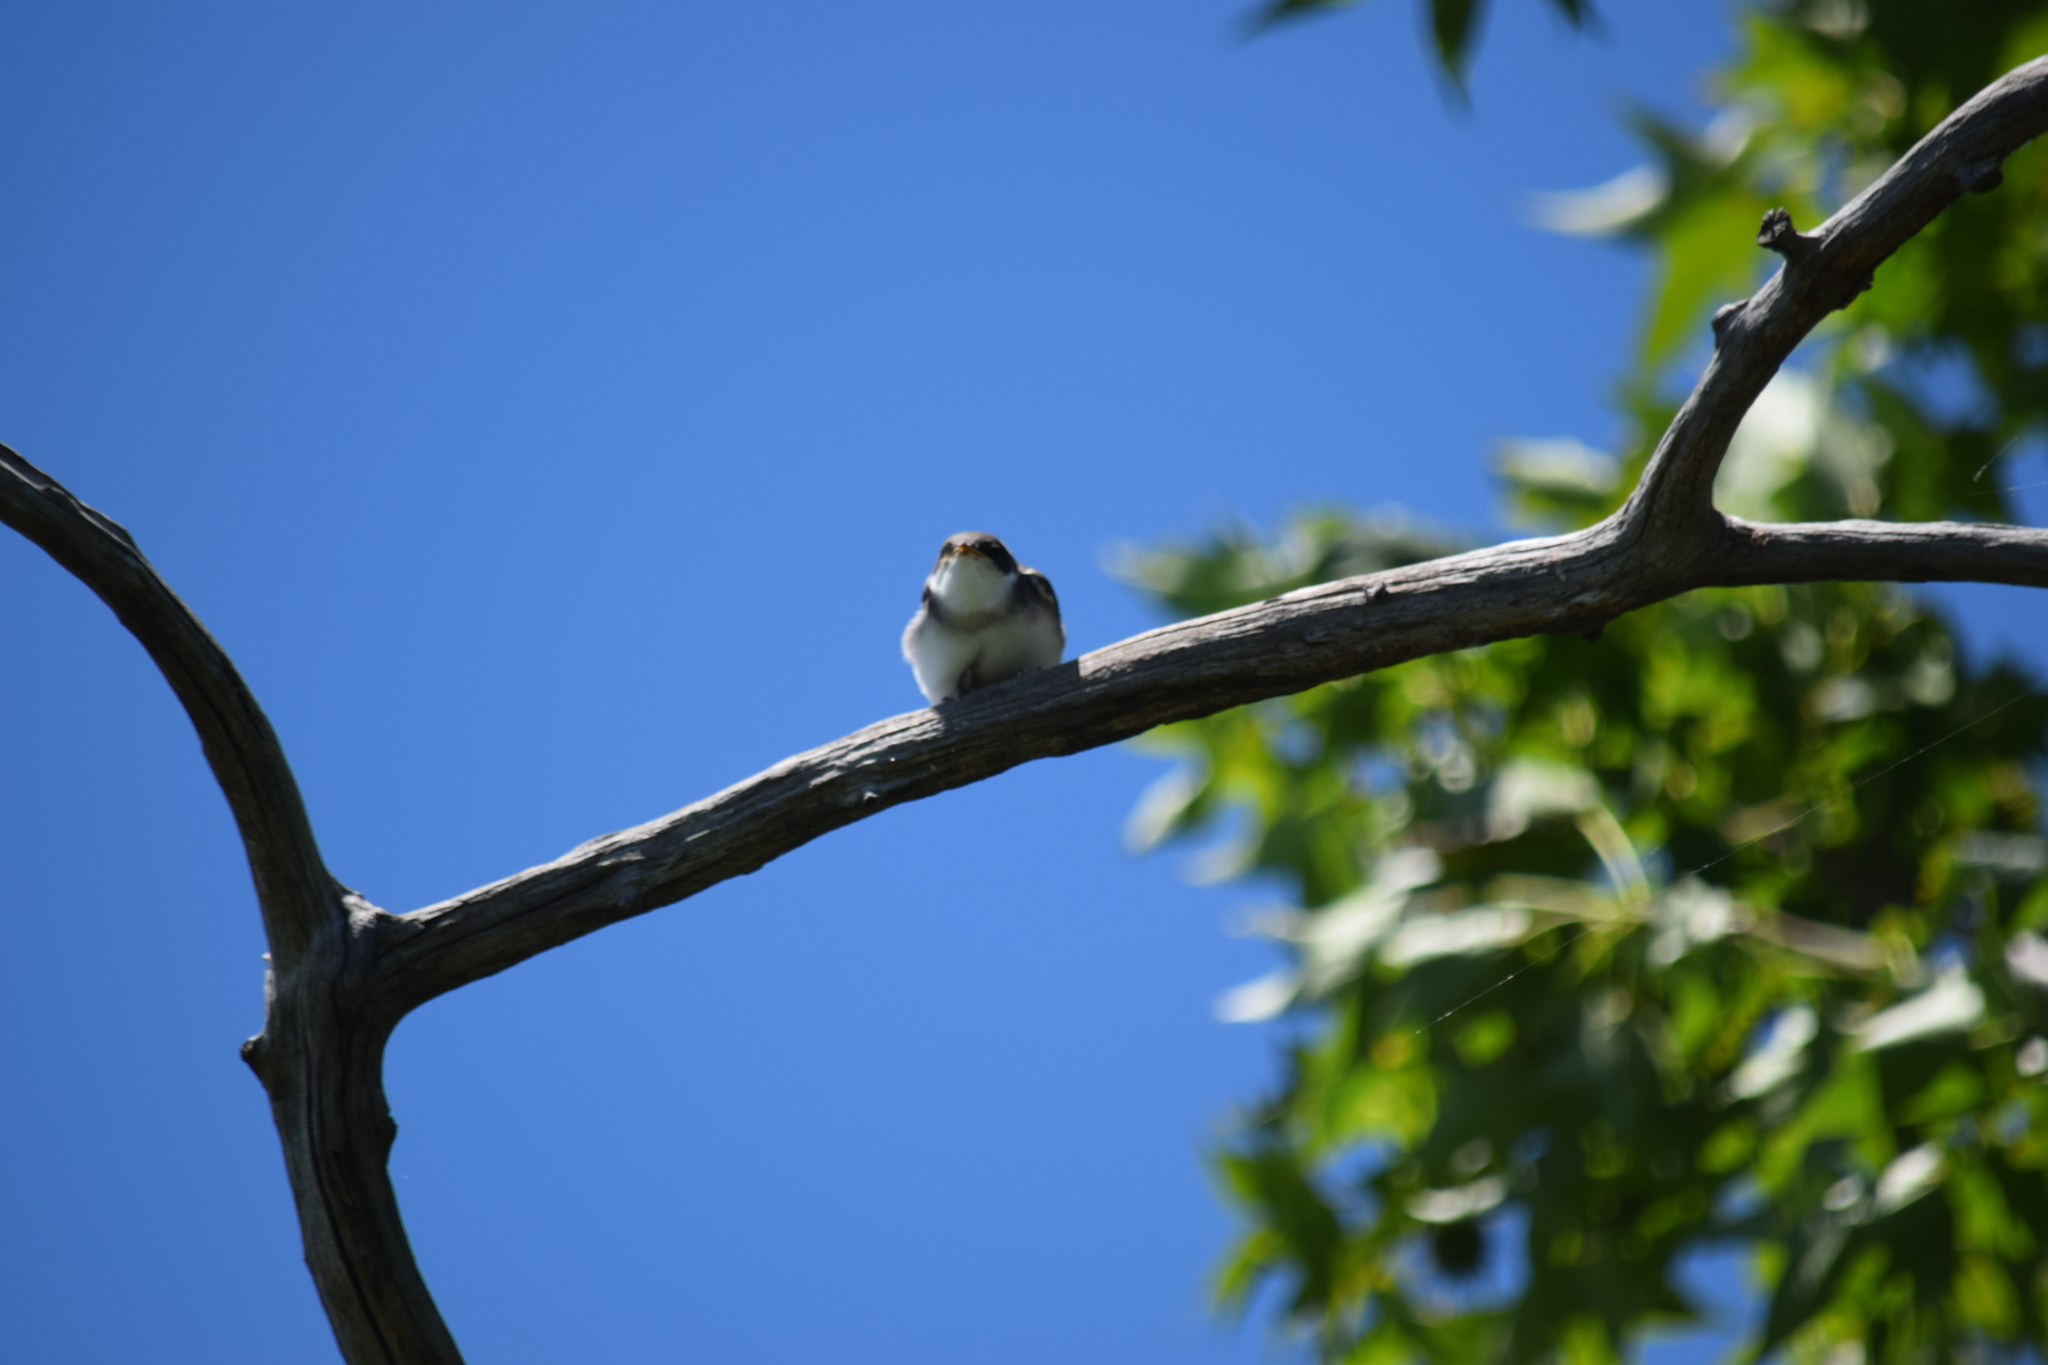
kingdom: Animalia
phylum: Chordata
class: Aves
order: Passeriformes
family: Hirundinidae
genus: Tachycineta
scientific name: Tachycineta bicolor
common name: Tree swallow
